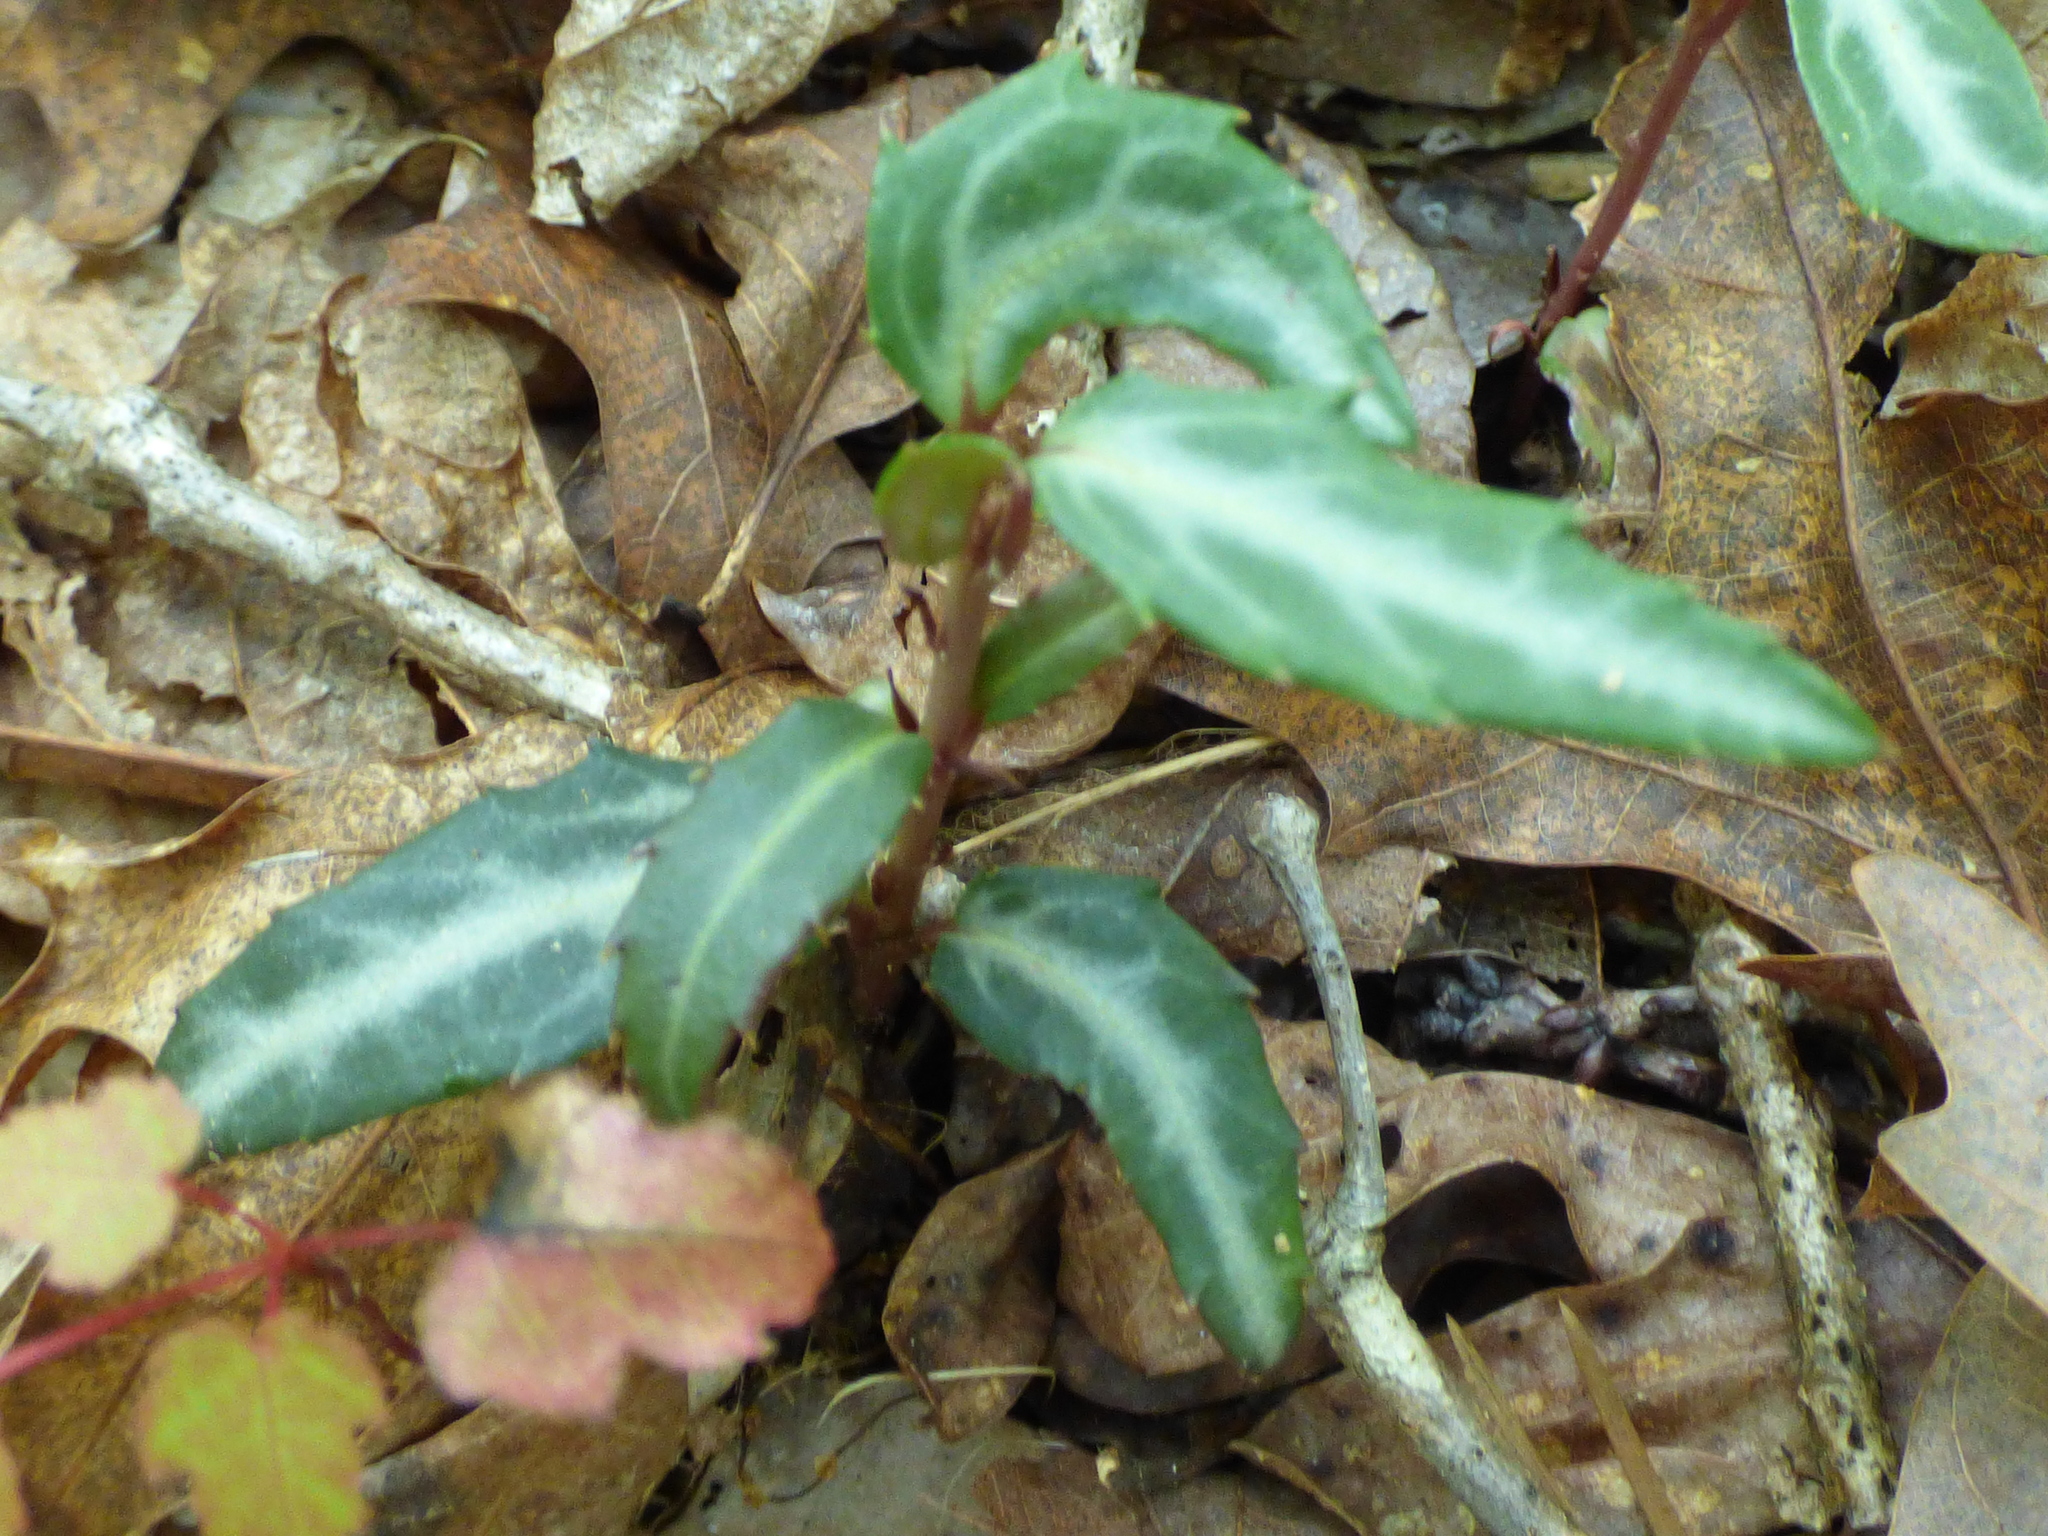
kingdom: Plantae
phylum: Tracheophyta
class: Magnoliopsida
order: Ericales
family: Ericaceae
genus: Chimaphila
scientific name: Chimaphila maculata
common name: Spotted pipsissewa
